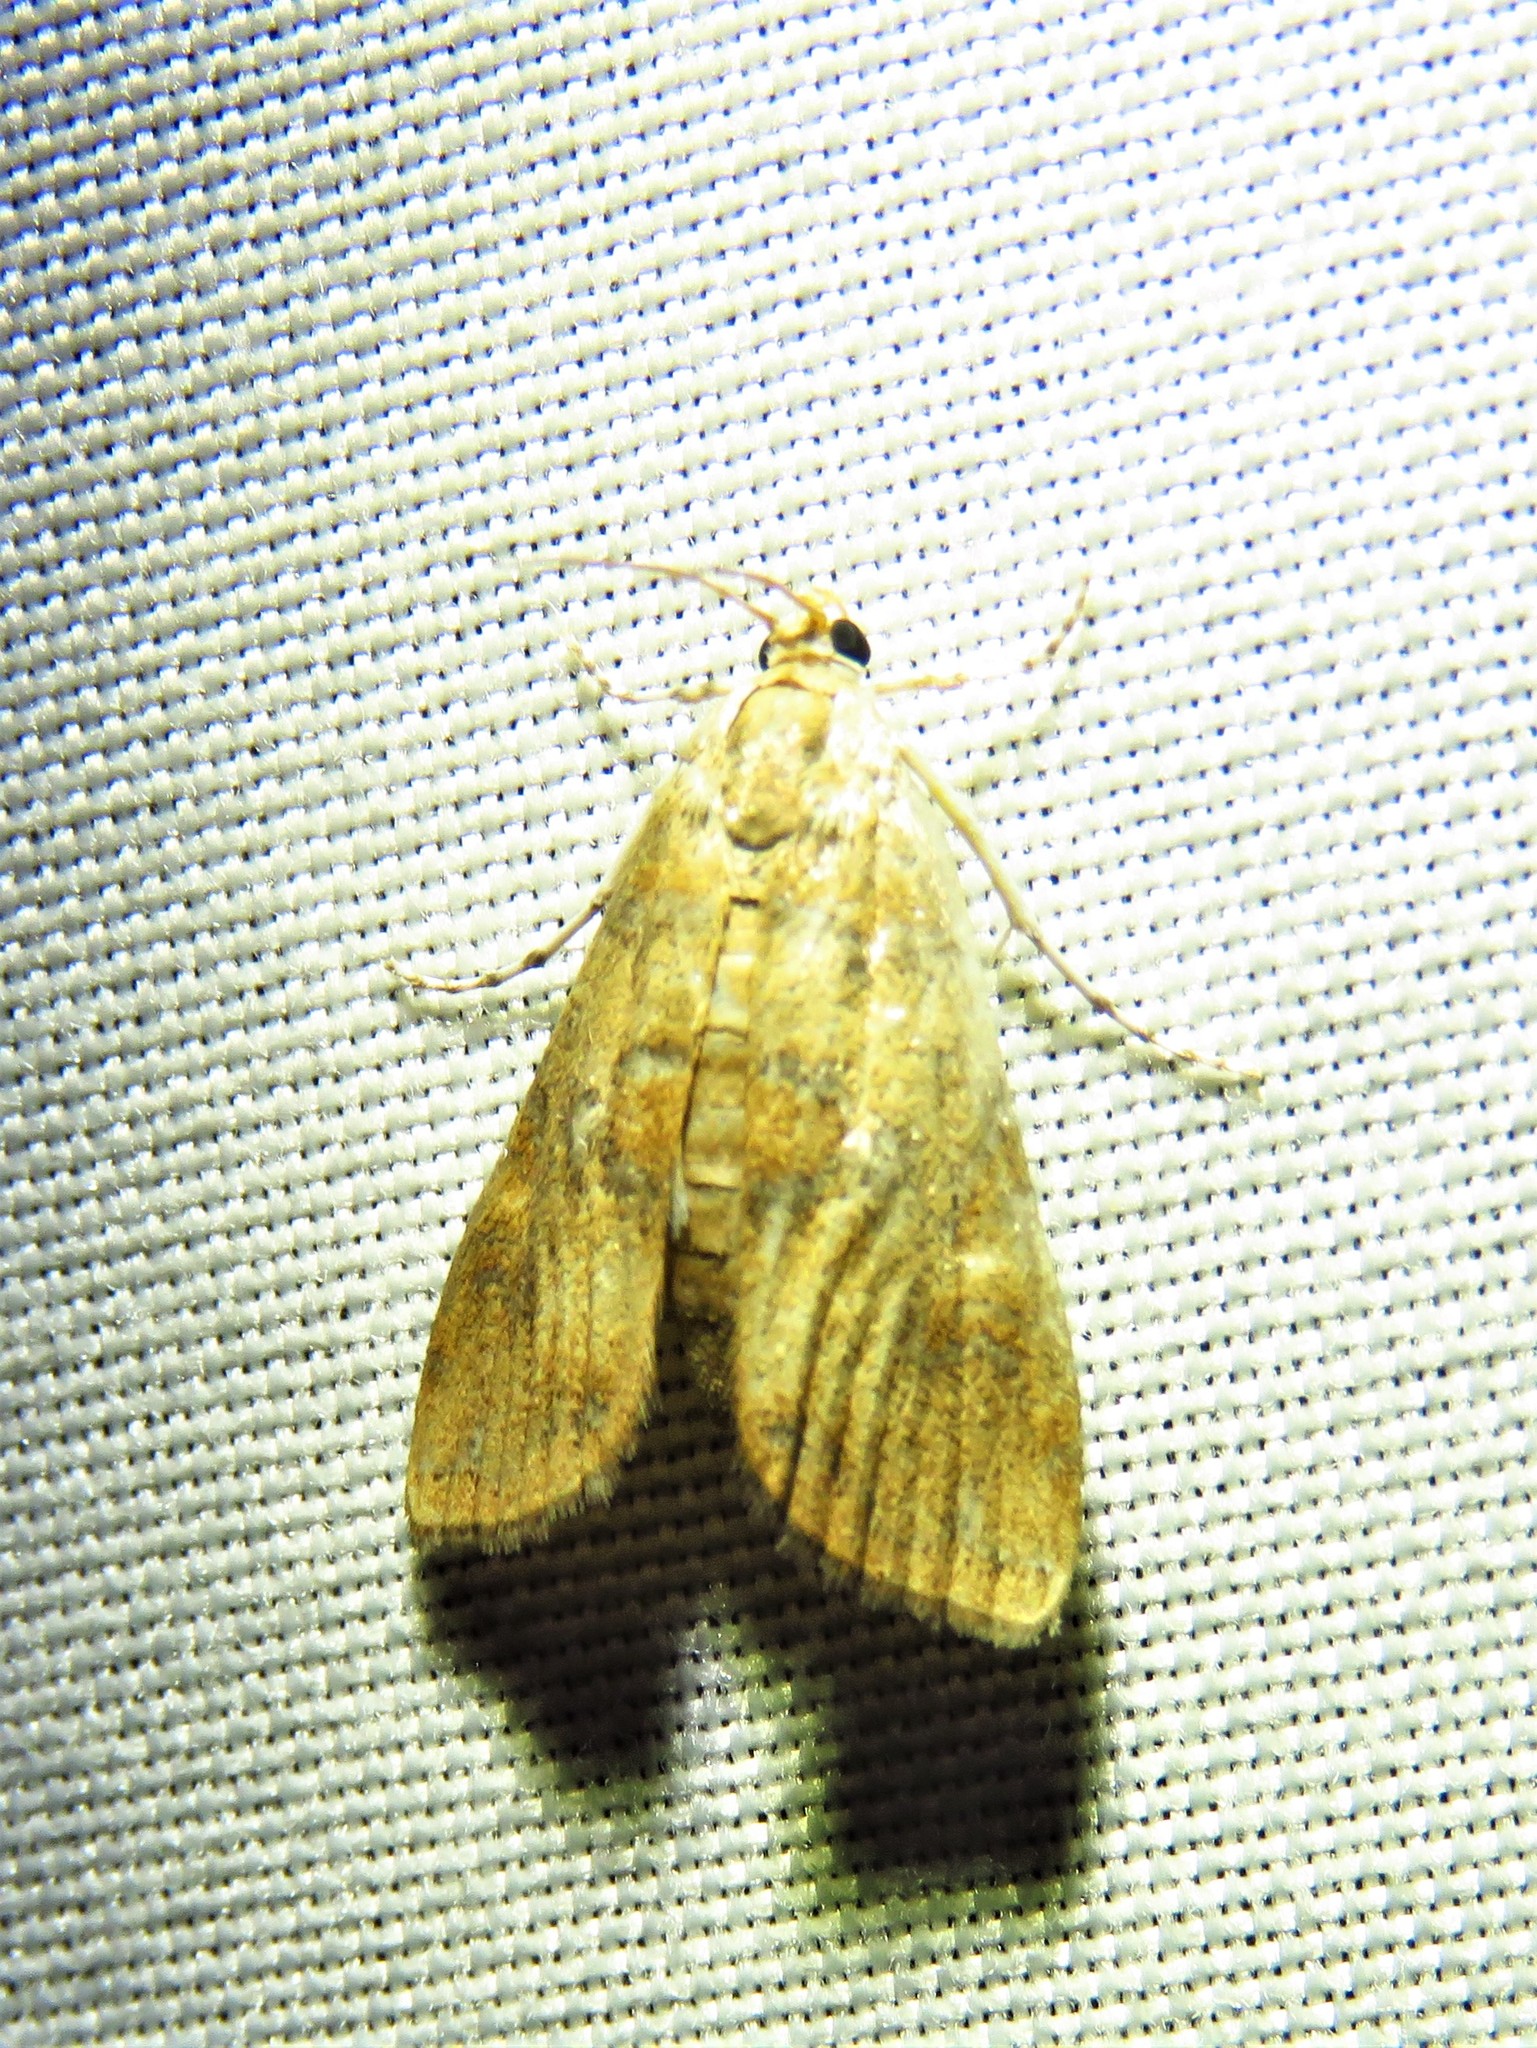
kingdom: Animalia
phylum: Arthropoda
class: Insecta
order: Lepidoptera
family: Crambidae
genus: Elophila
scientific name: Elophila gyralis
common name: Waterlily borer moth
